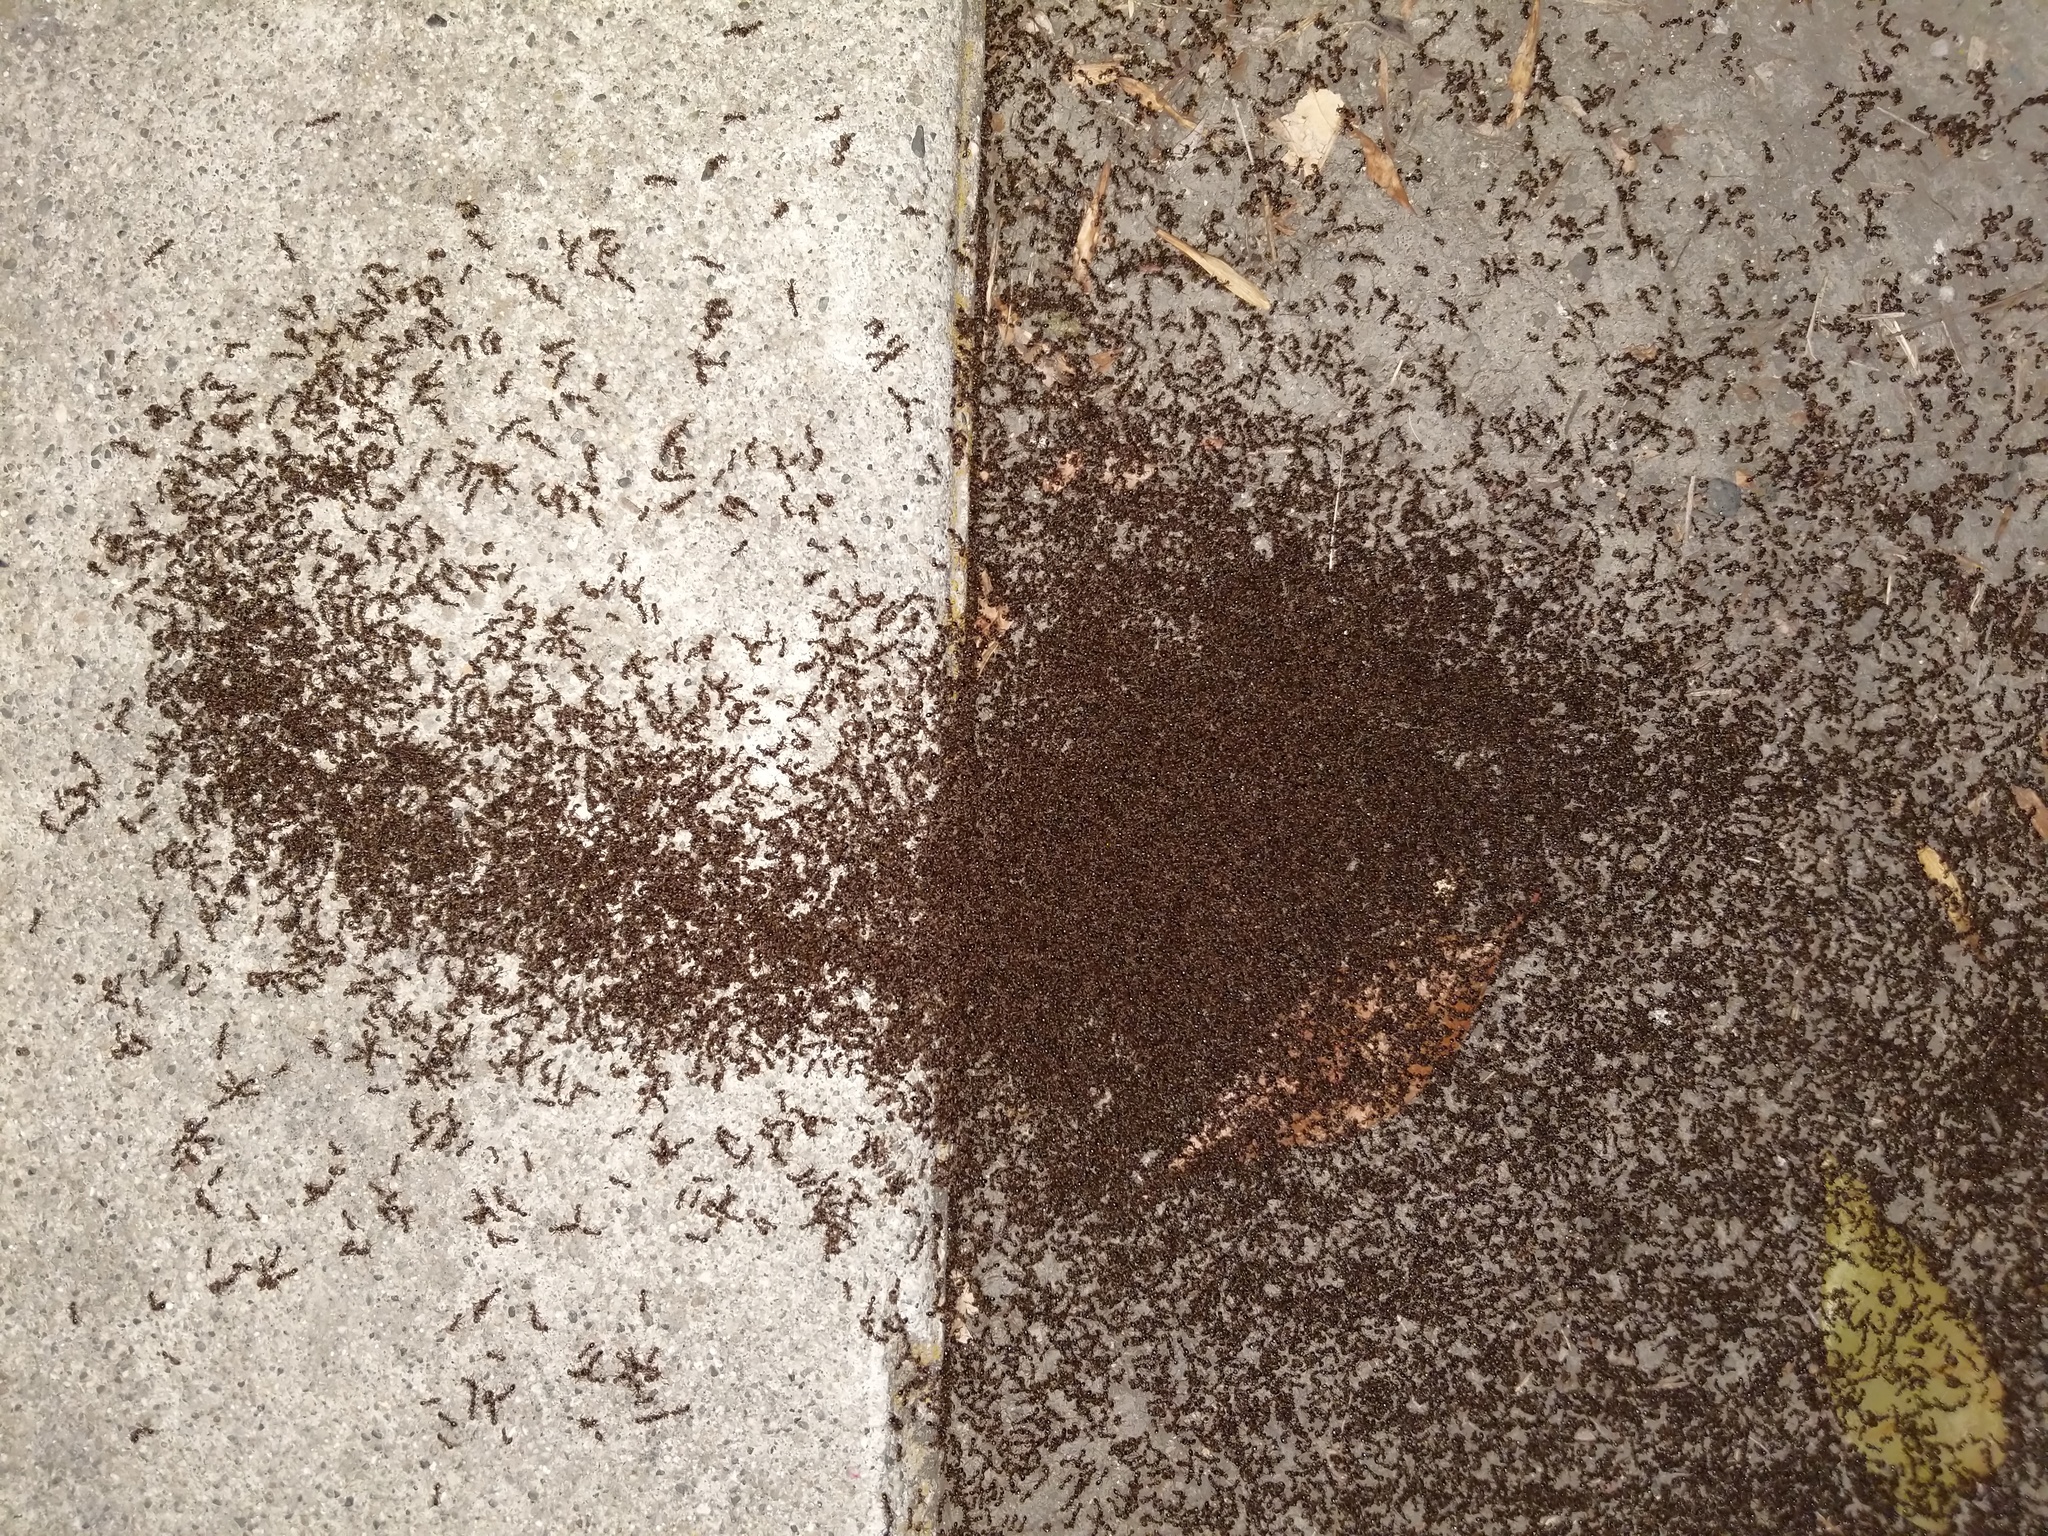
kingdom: Animalia
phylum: Arthropoda
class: Insecta
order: Hymenoptera
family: Formicidae
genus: Tetramorium
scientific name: Tetramorium immigrans
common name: Pavement ant
